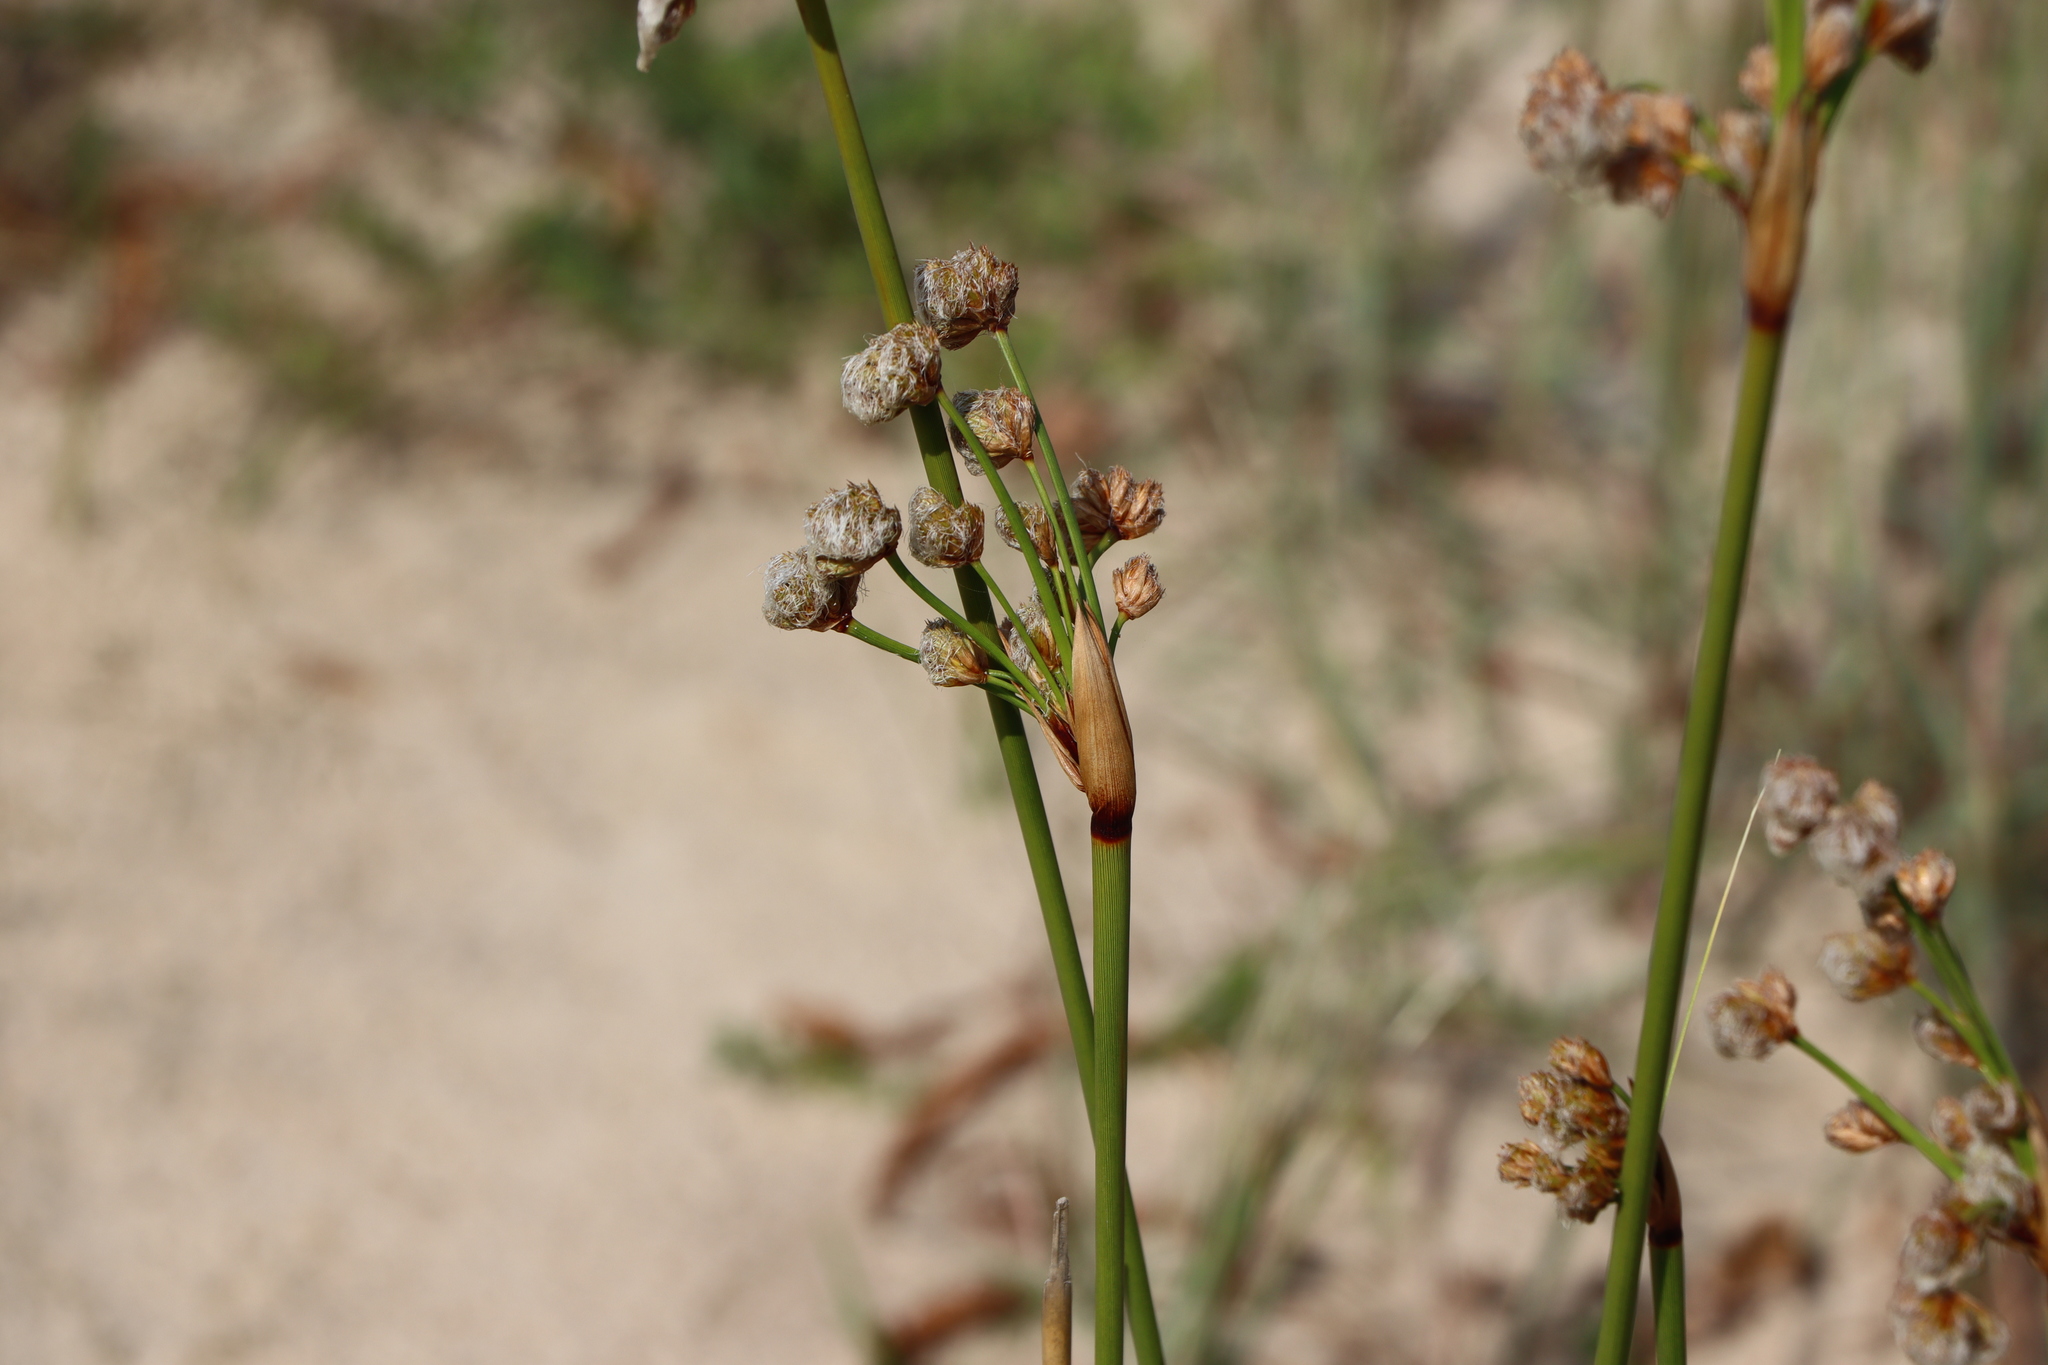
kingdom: Plantae
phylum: Tracheophyta
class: Liliopsida
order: Poales
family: Cyperaceae
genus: Cyperus
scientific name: Cyperus trigynus
